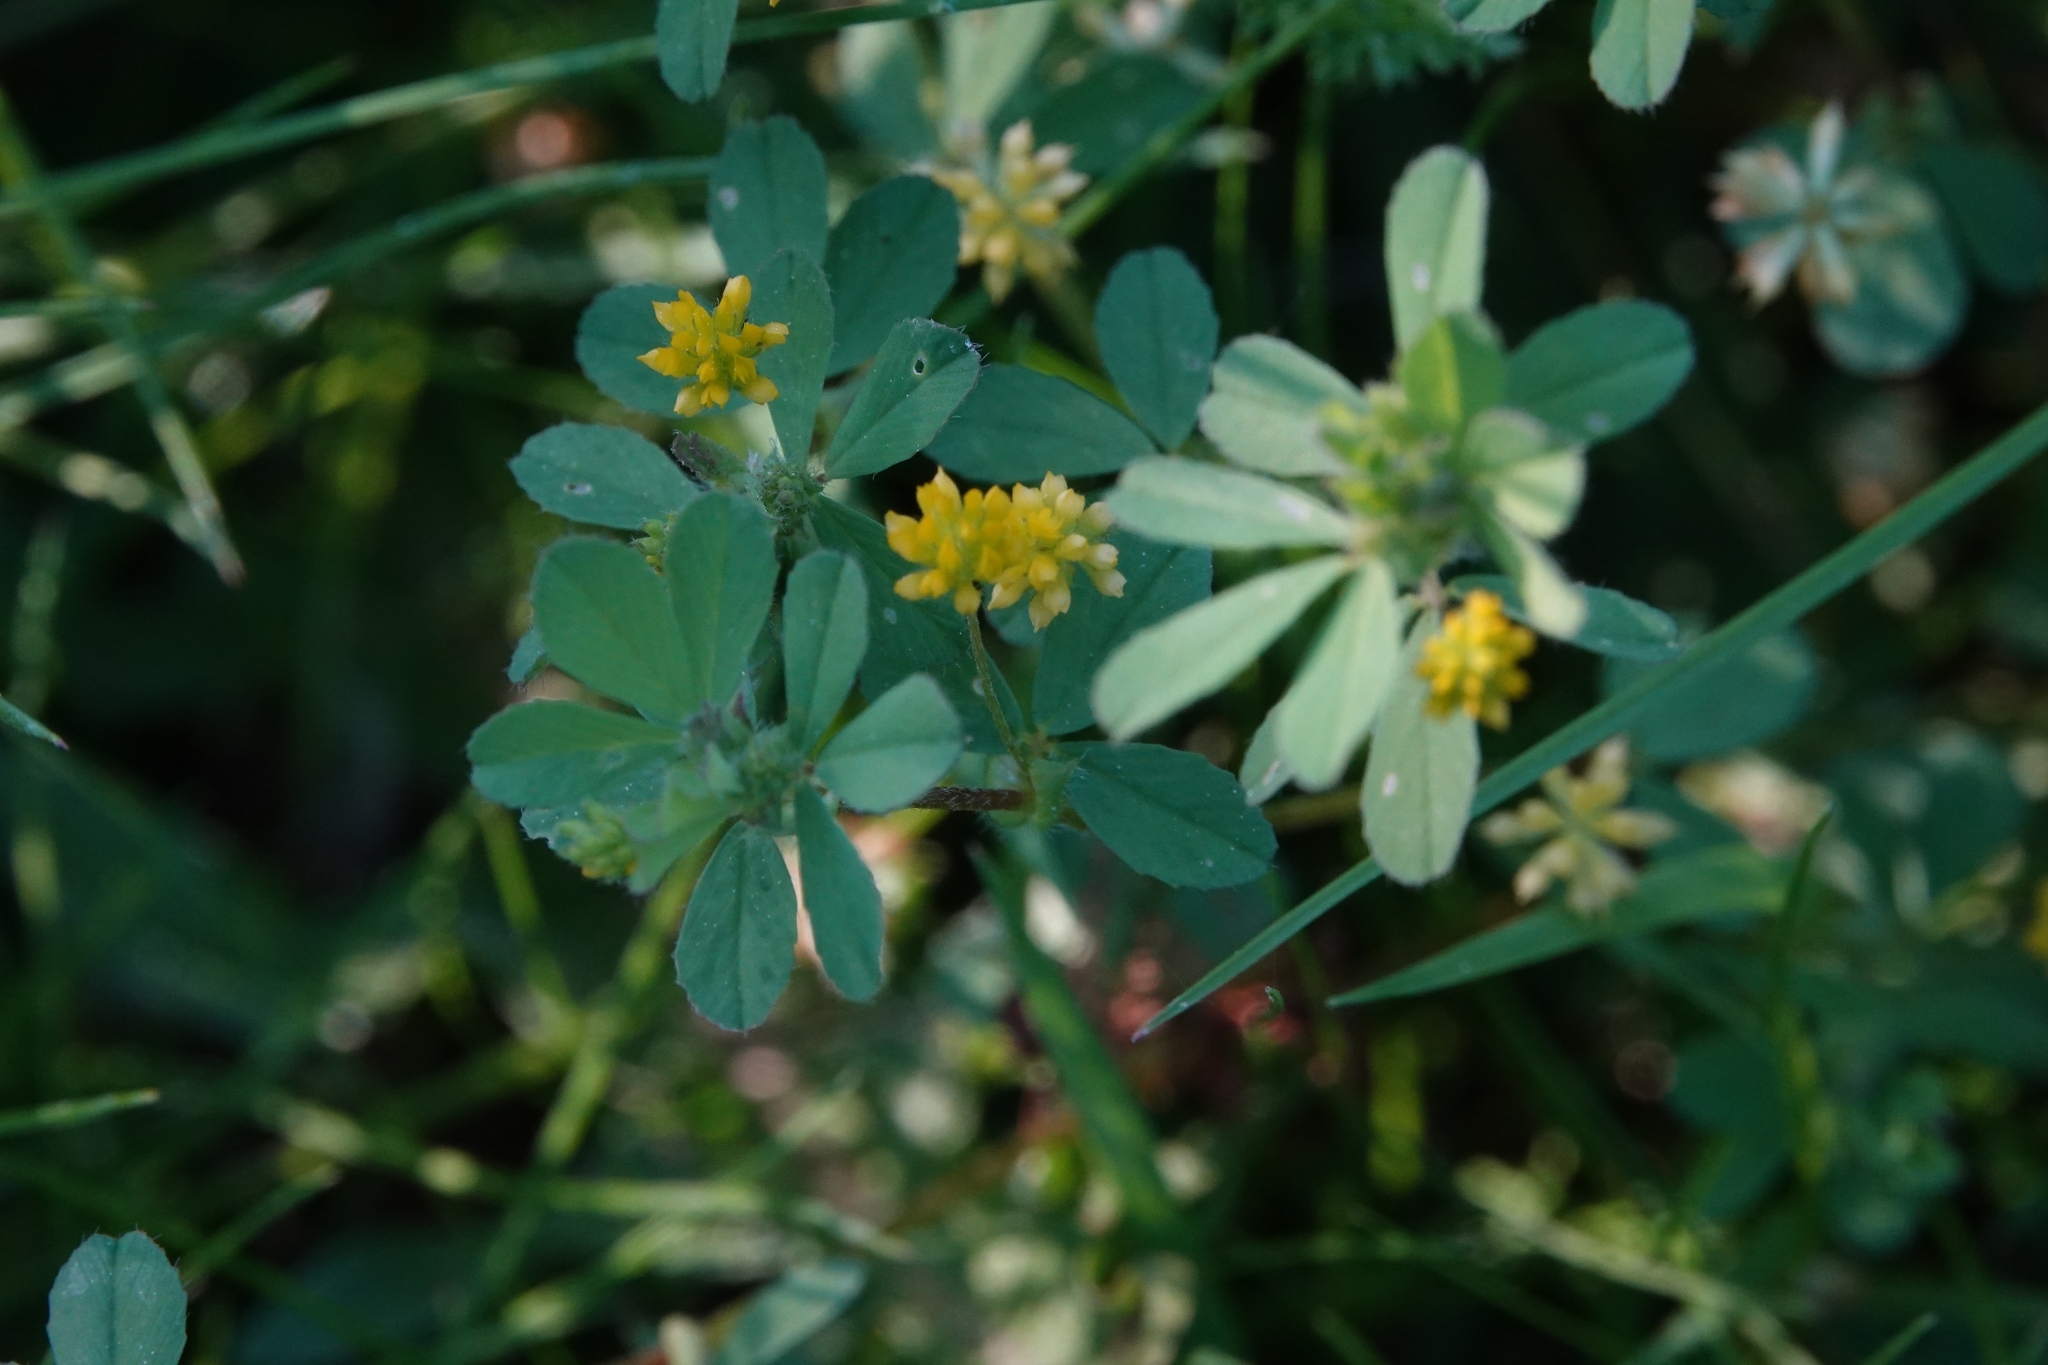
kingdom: Plantae
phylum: Tracheophyta
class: Magnoliopsida
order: Fabales
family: Fabaceae
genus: Trifolium
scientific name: Trifolium dubium
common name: Suckling clover
